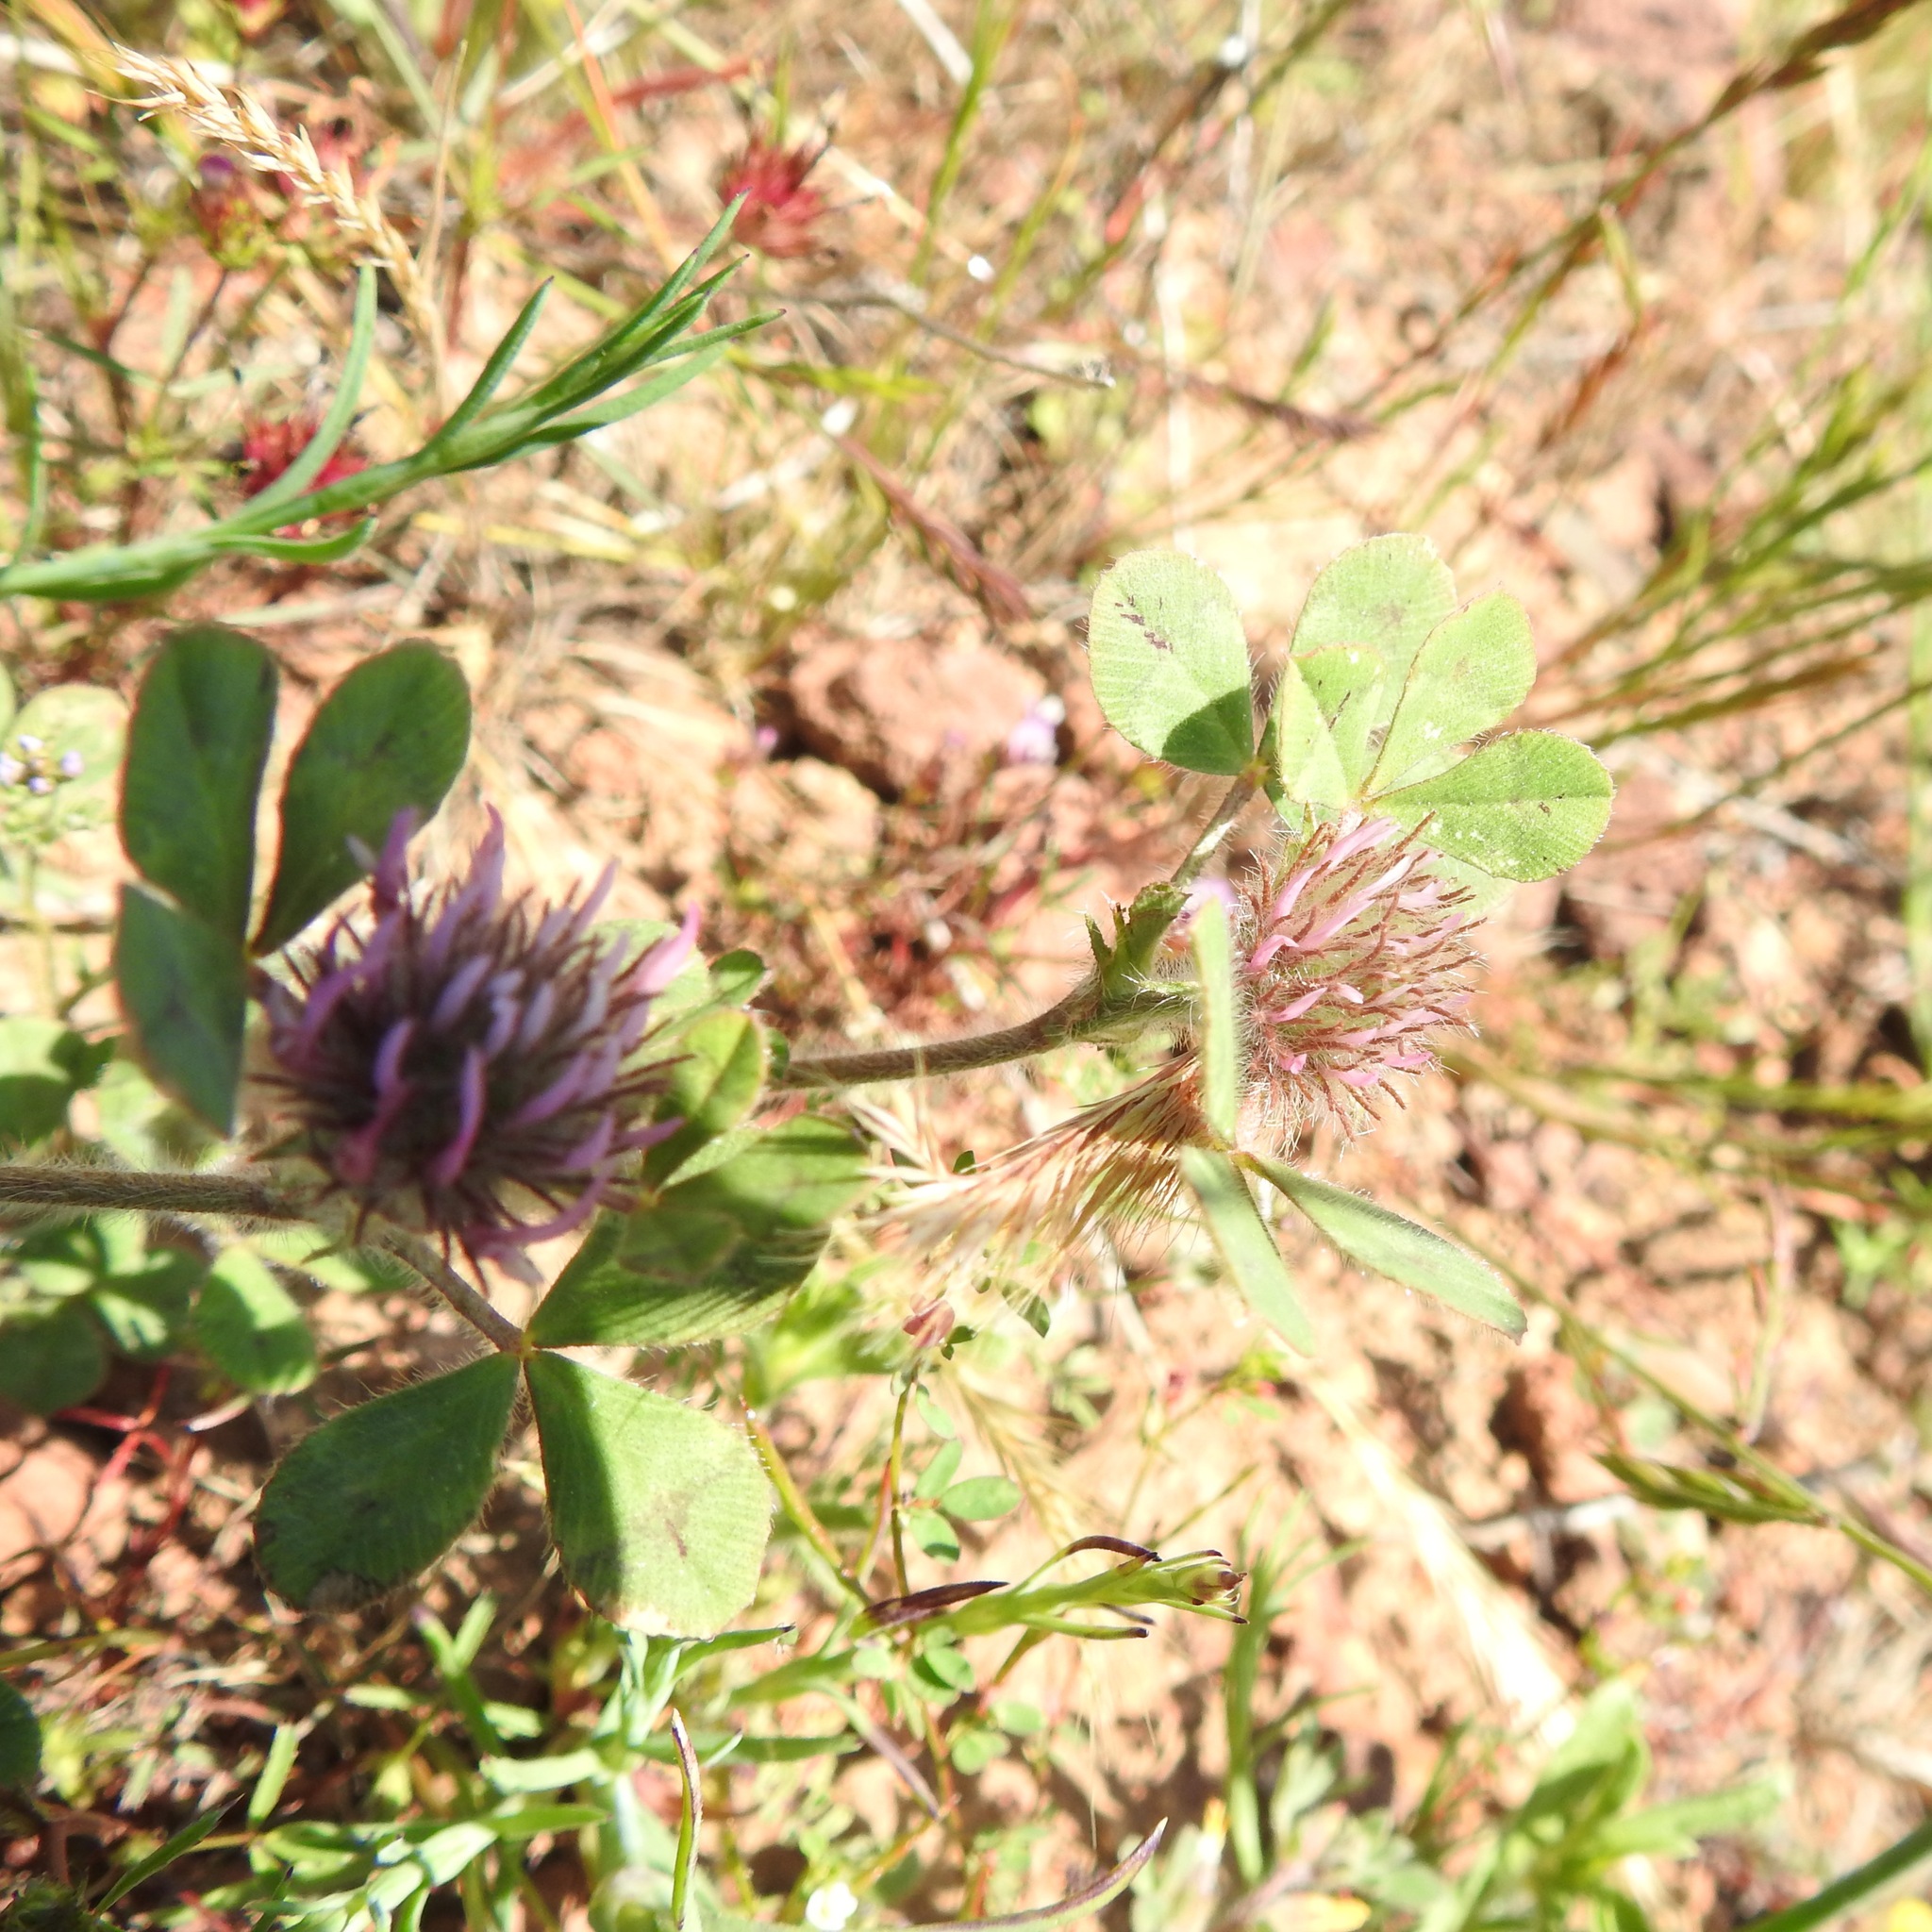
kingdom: Plantae
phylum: Tracheophyta
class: Magnoliopsida
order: Fabales
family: Fabaceae
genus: Trifolium
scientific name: Trifolium hirtum
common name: Rose clover
